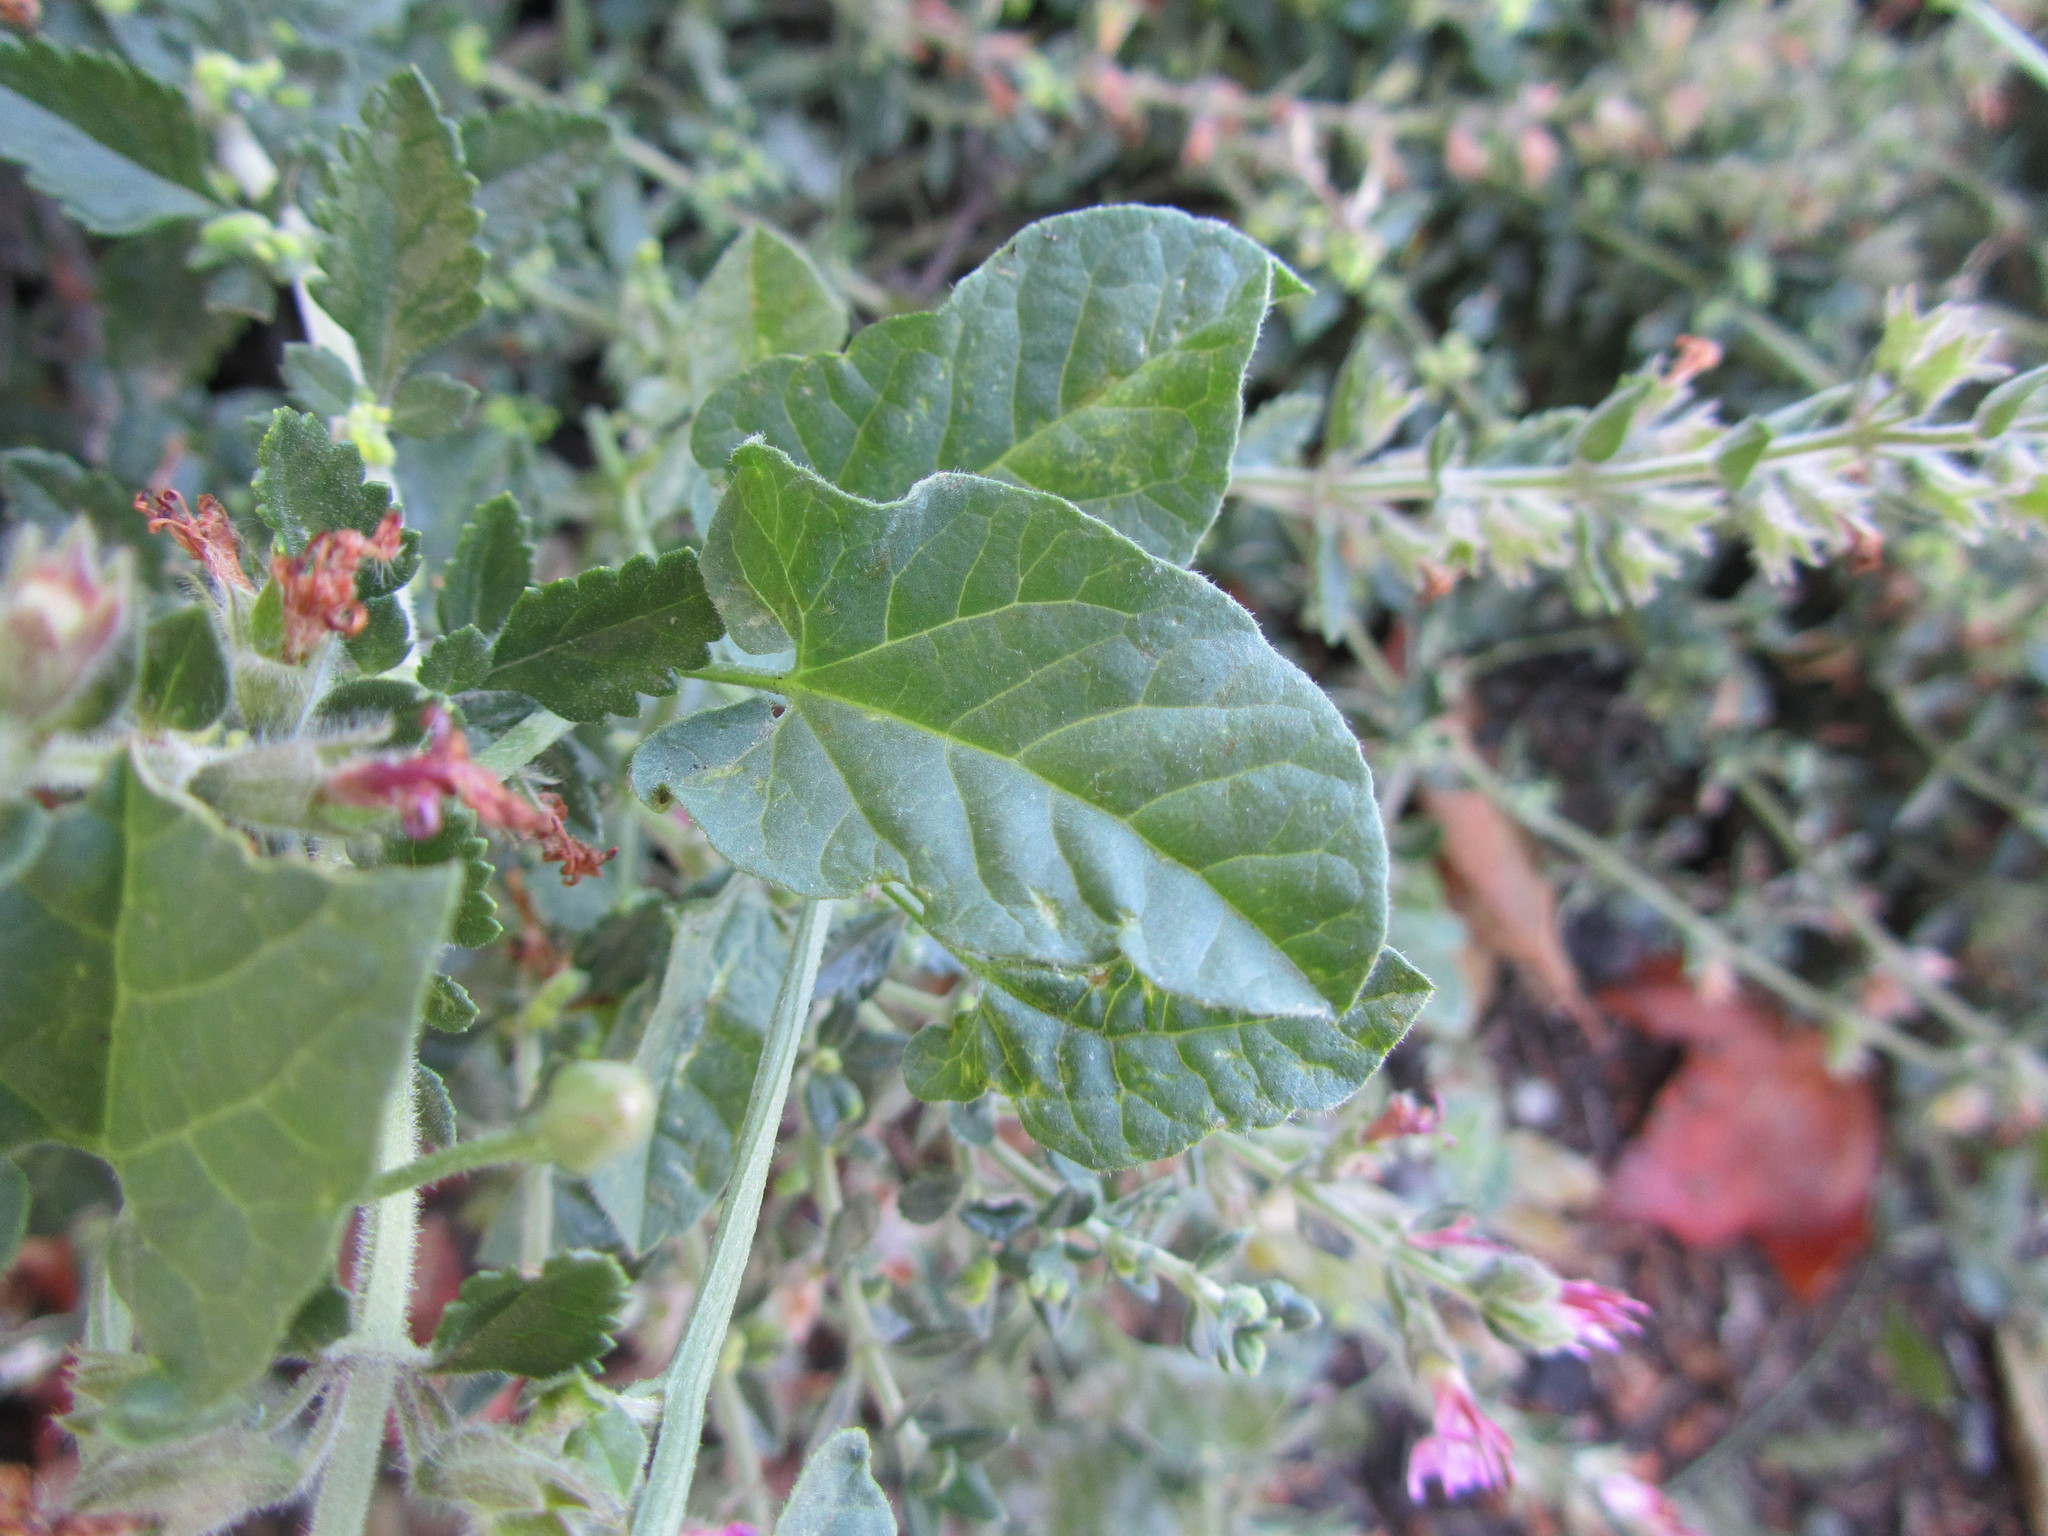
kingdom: Plantae
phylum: Tracheophyta
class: Magnoliopsida
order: Solanales
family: Convolvulaceae
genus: Convolvulus
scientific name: Convolvulus arvensis
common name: Field bindweed
